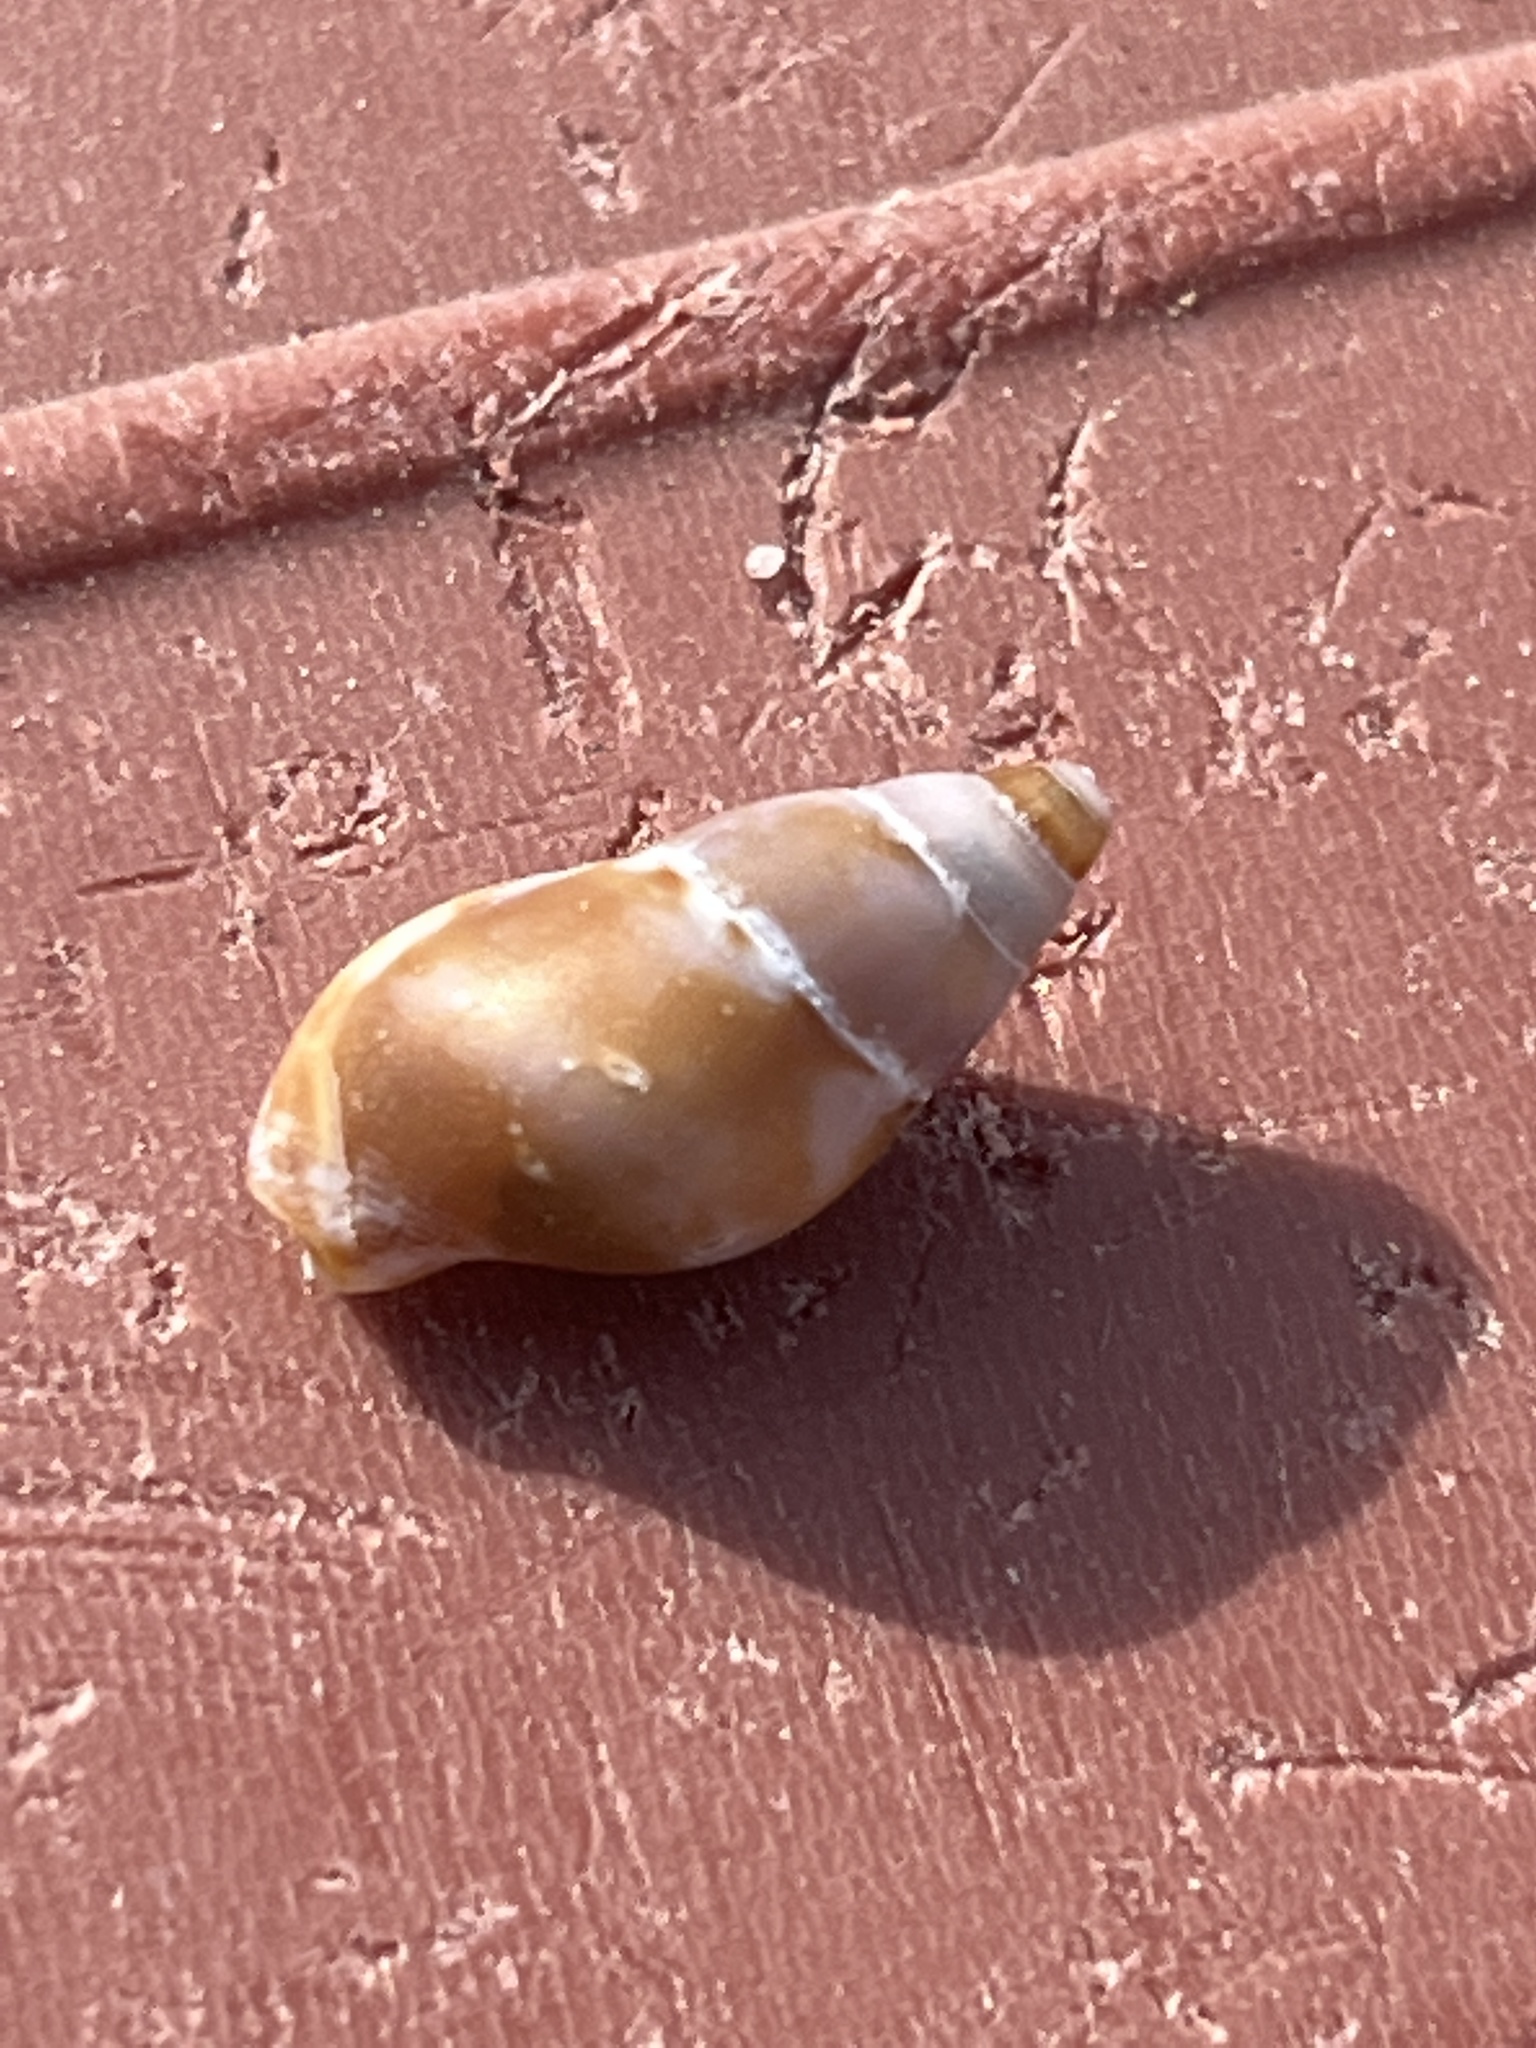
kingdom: Animalia
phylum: Mollusca
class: Gastropoda
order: Neogastropoda
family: Columbellidae
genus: Mitrella
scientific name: Mitrella burchardti
